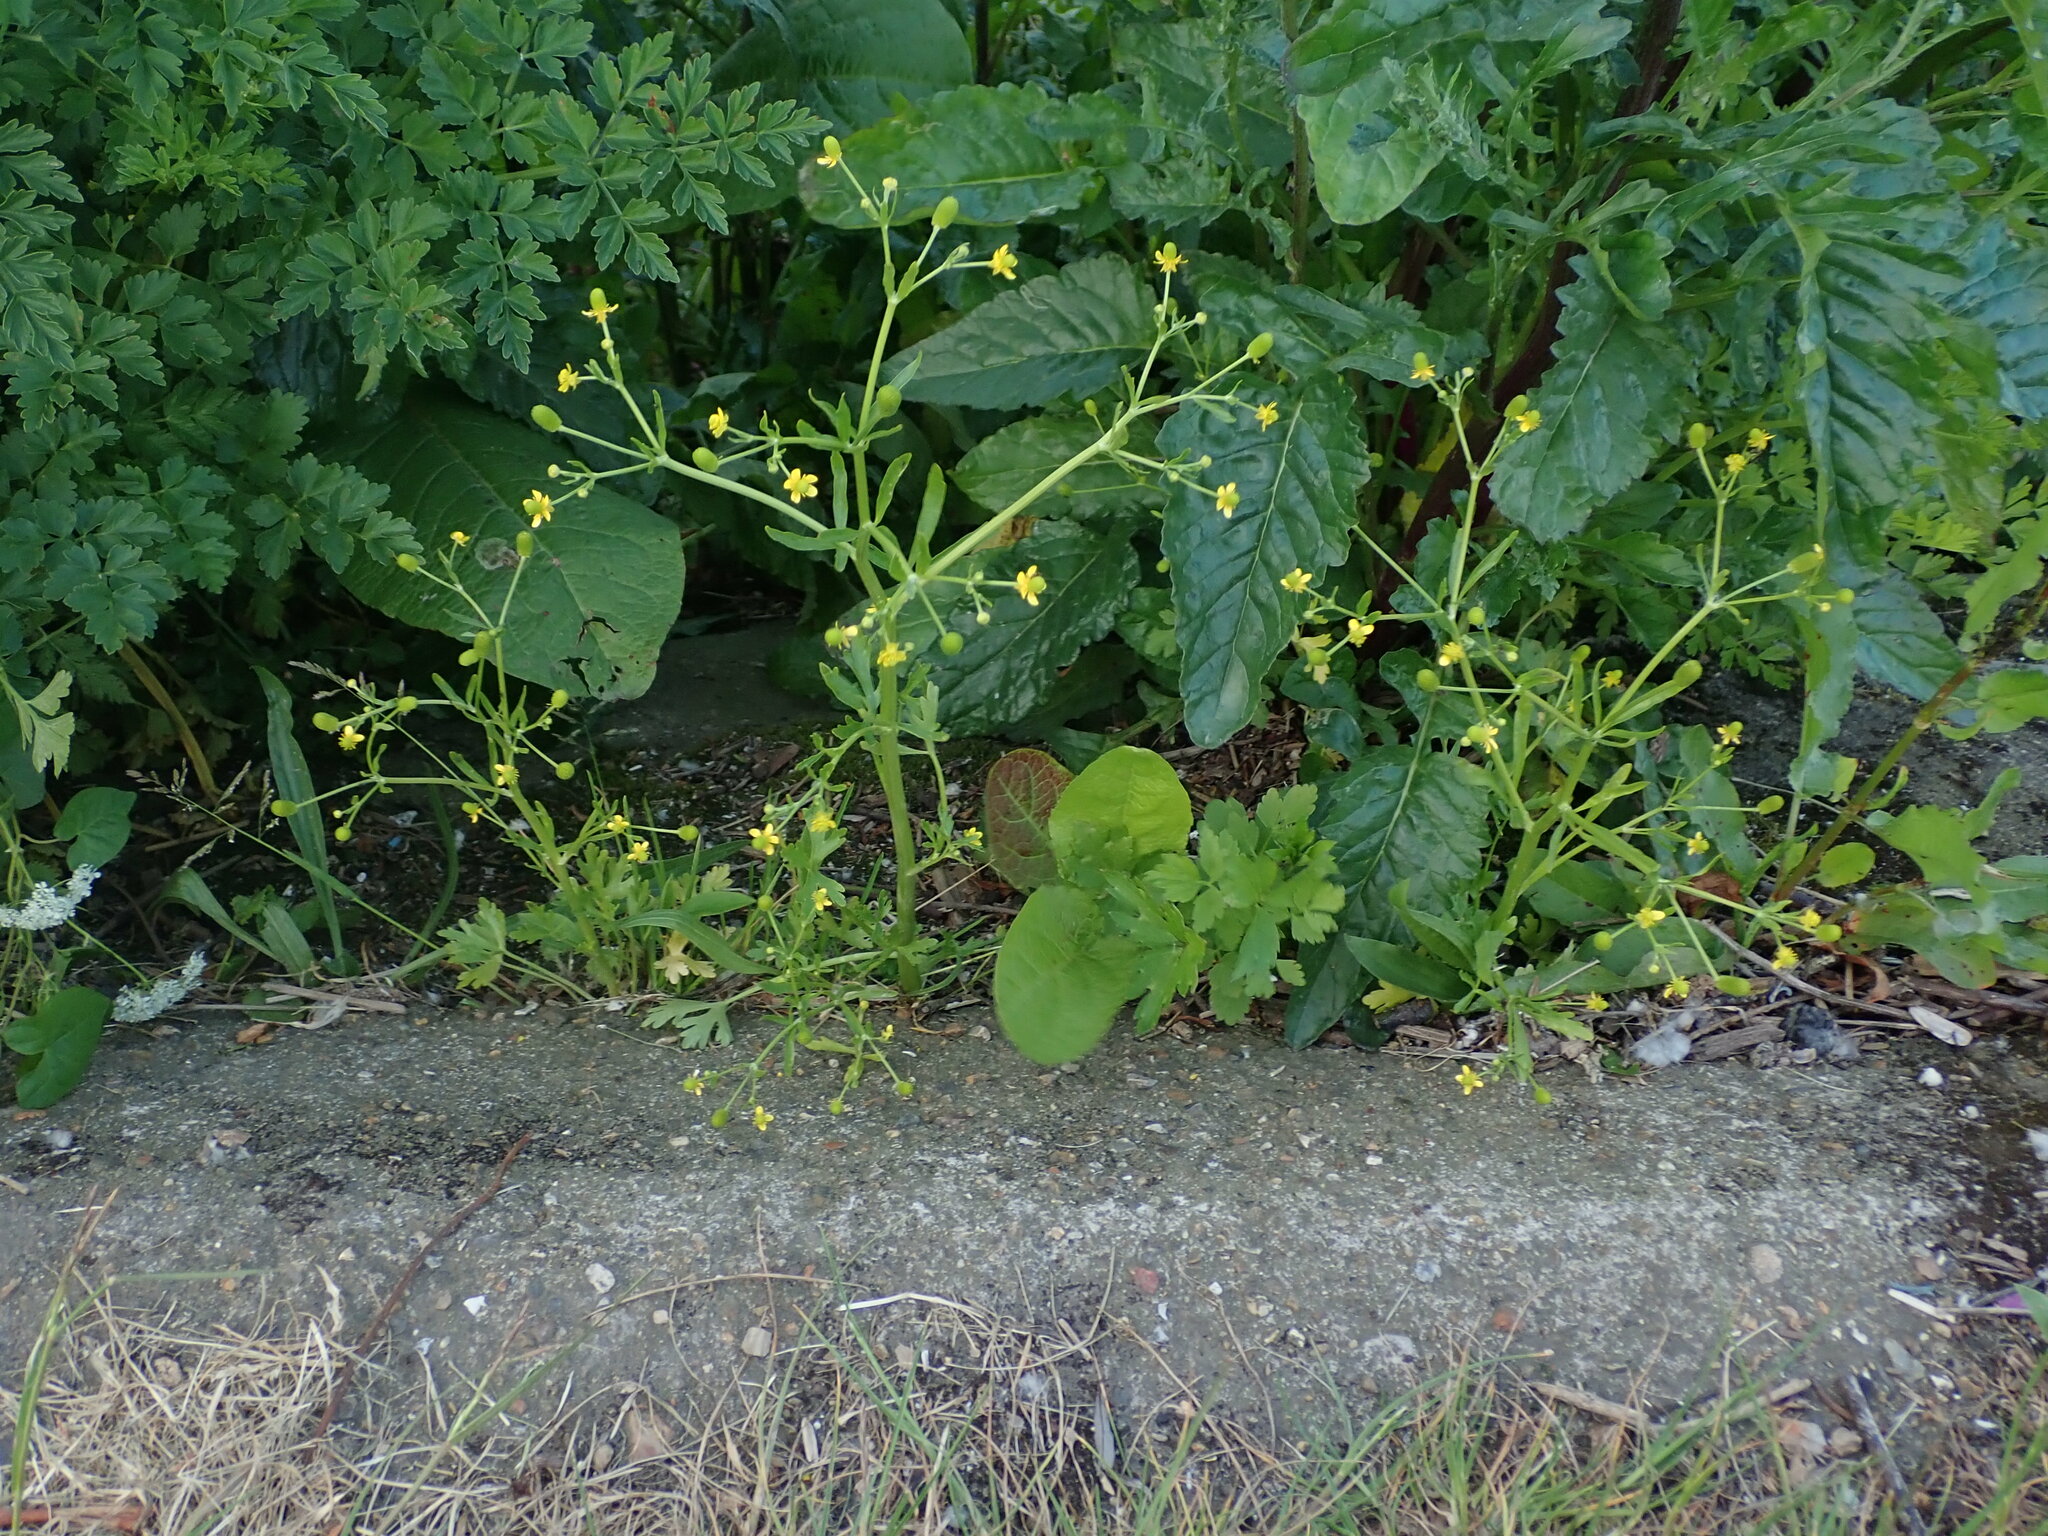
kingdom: Plantae
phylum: Tracheophyta
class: Magnoliopsida
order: Ranunculales
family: Ranunculaceae
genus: Ranunculus
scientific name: Ranunculus sceleratus
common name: Celery-leaved buttercup
